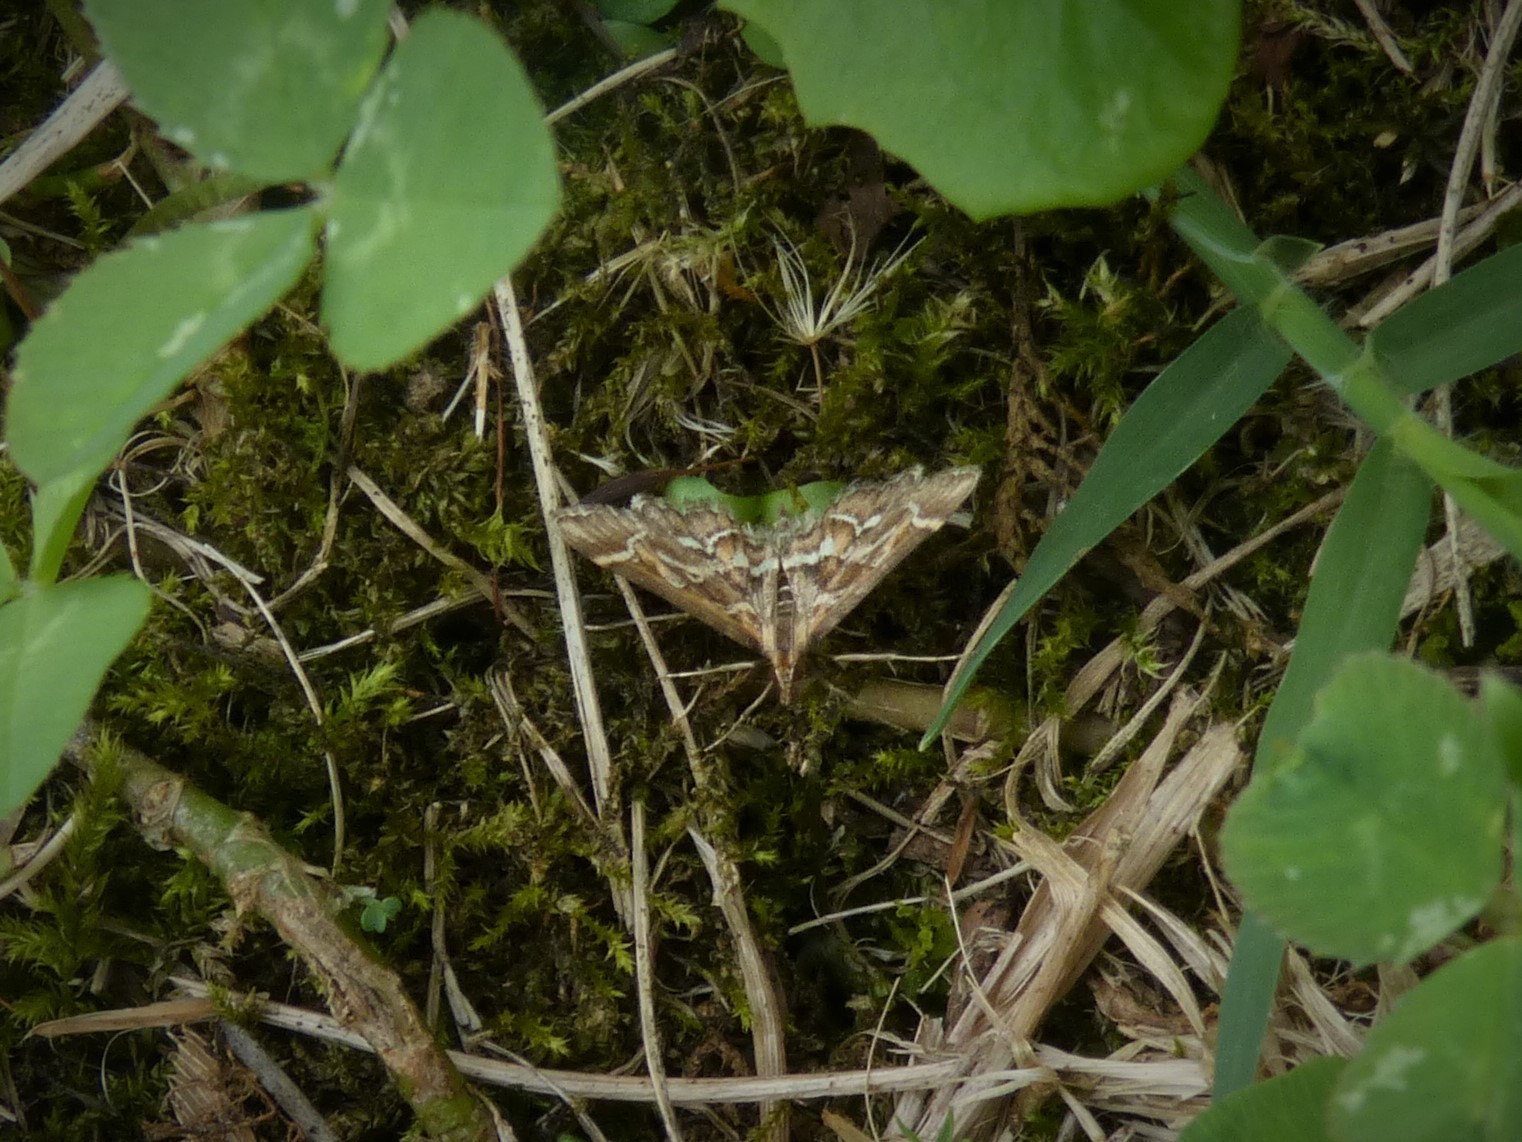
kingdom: Animalia
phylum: Arthropoda
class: Insecta
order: Lepidoptera
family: Crambidae
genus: Diasemia
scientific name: Diasemia reticularis
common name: Lettered china-mark
